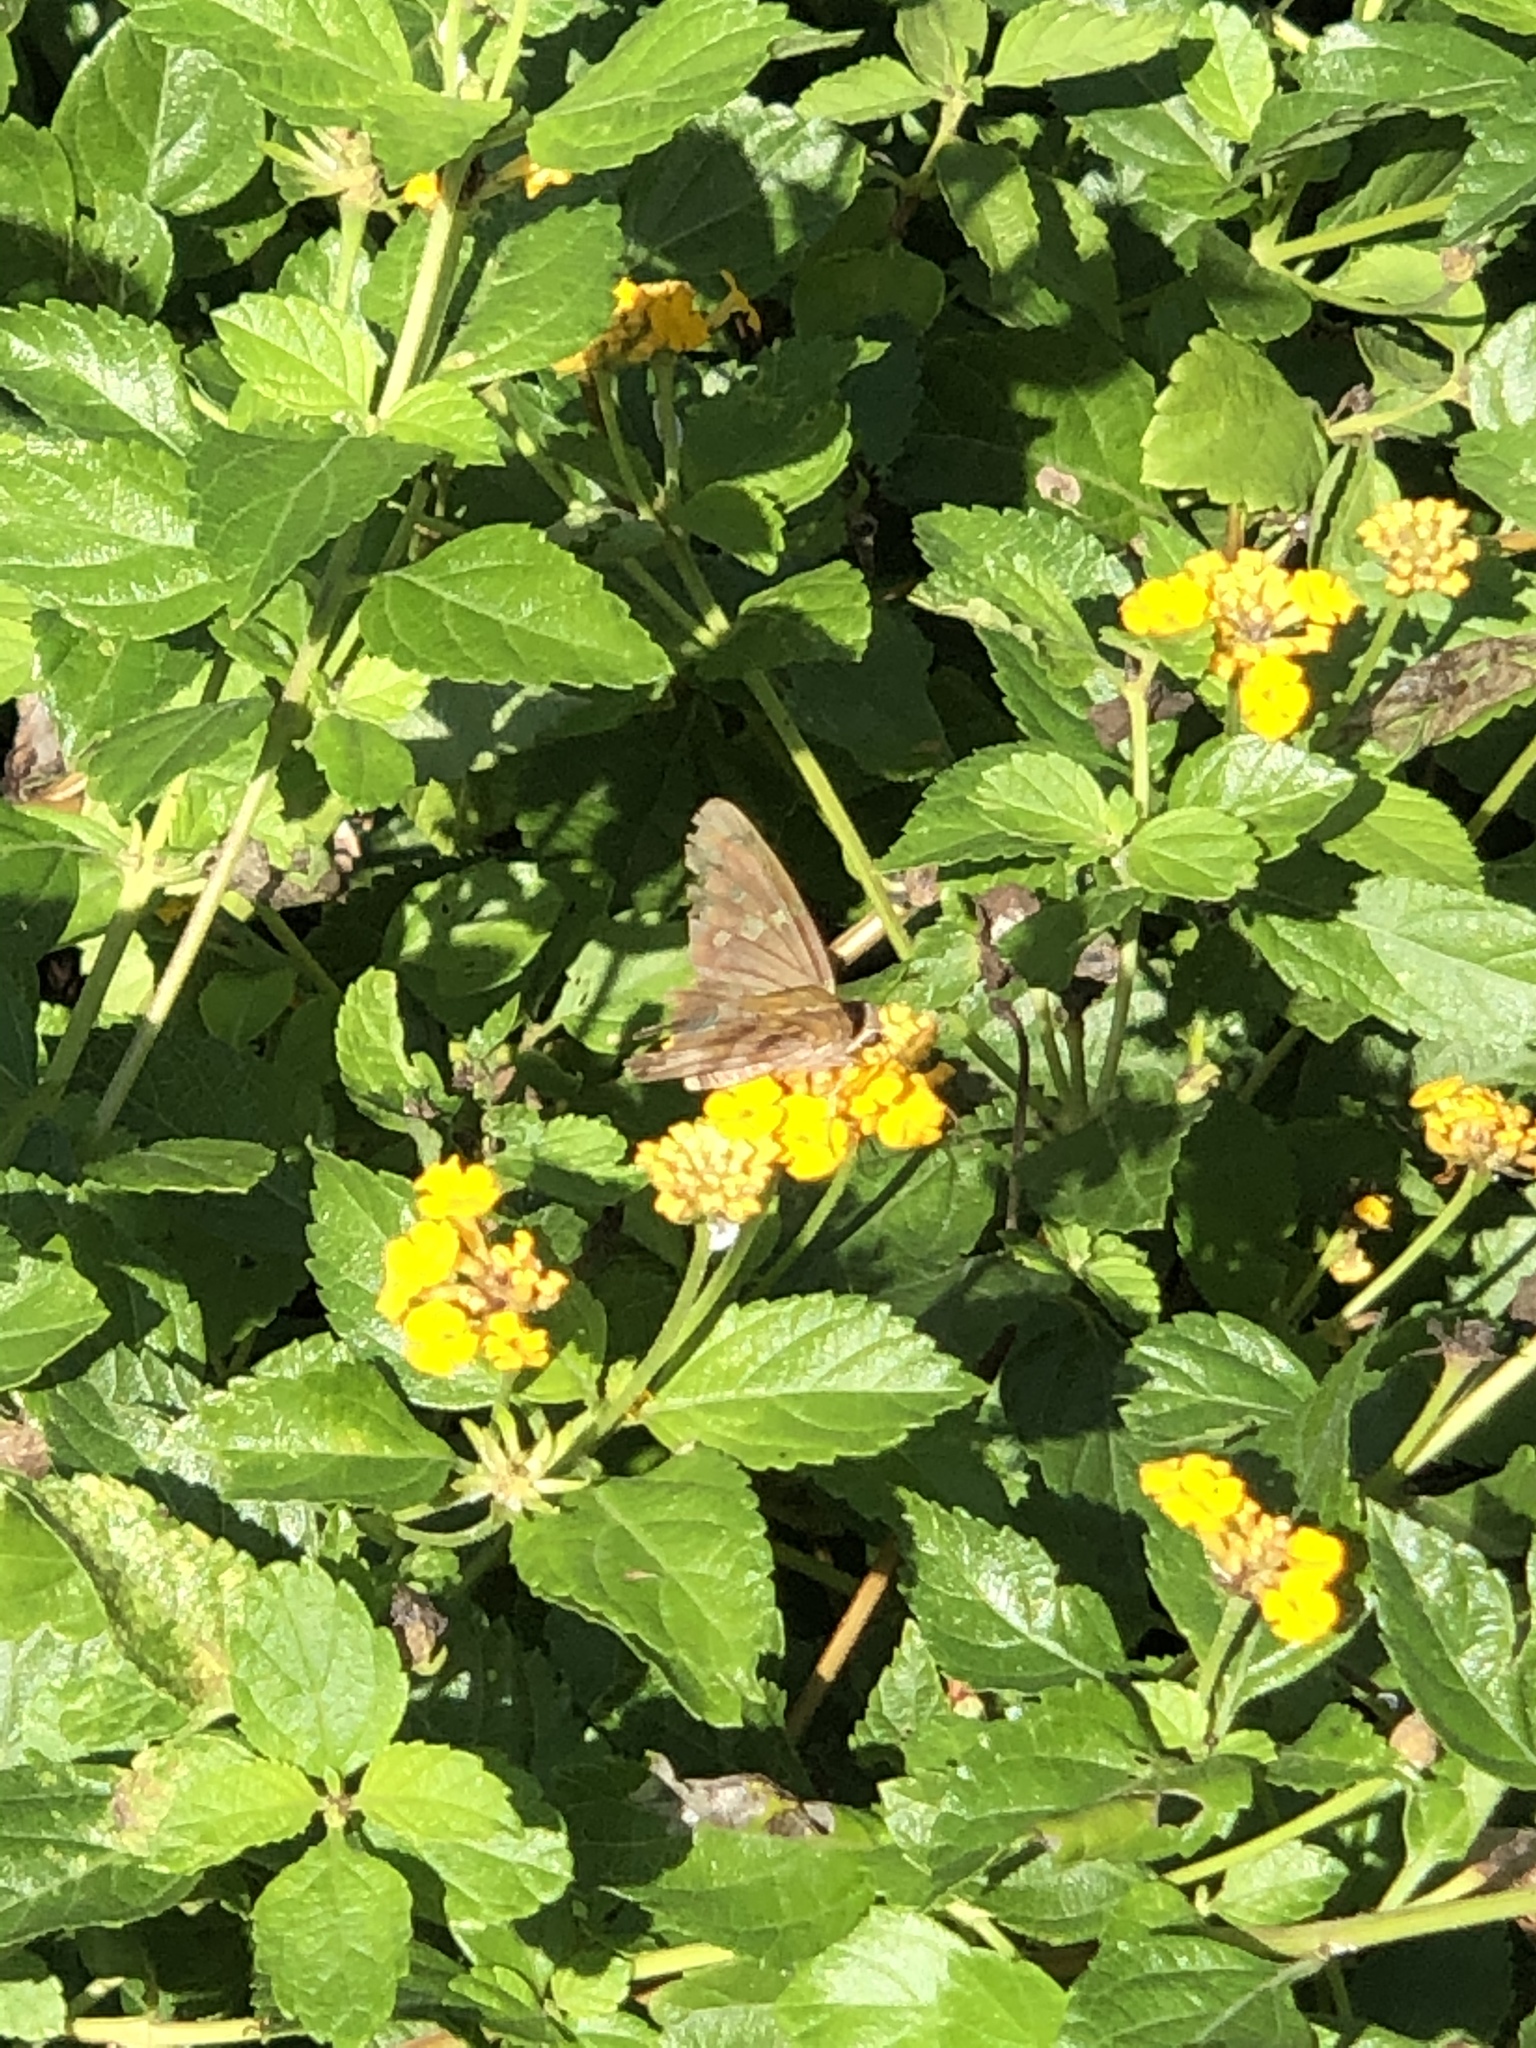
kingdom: Animalia
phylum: Arthropoda
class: Insecta
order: Lepidoptera
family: Hesperiidae
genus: Urbanus
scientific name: Urbanus proteus
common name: Long-tailed skipper
